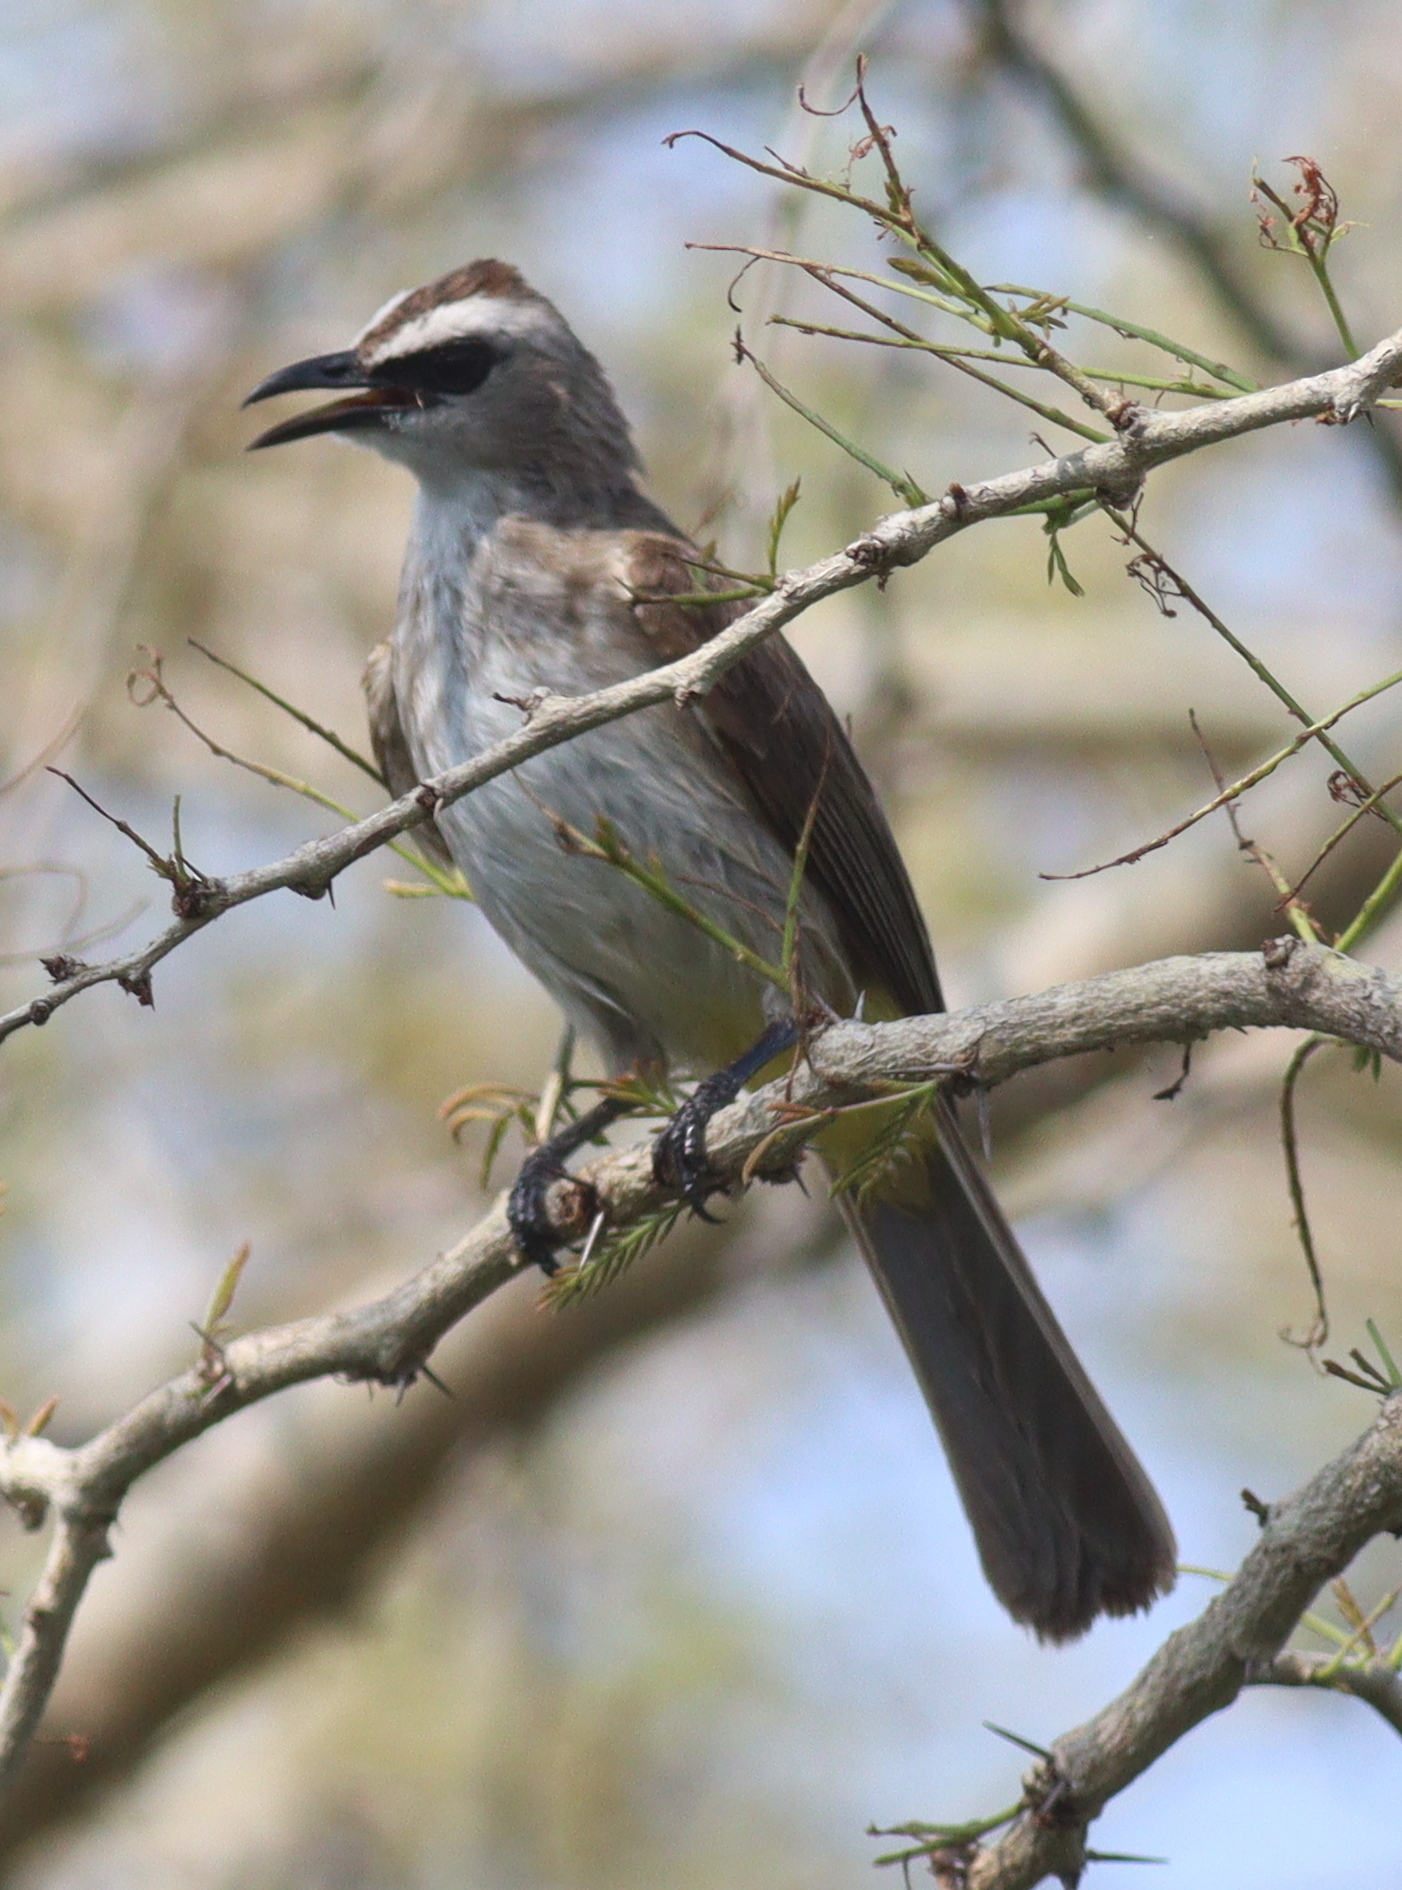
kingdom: Animalia
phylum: Chordata
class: Aves
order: Passeriformes
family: Pycnonotidae
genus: Pycnonotus
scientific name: Pycnonotus goiavier
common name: Yellow-vented bulbul
